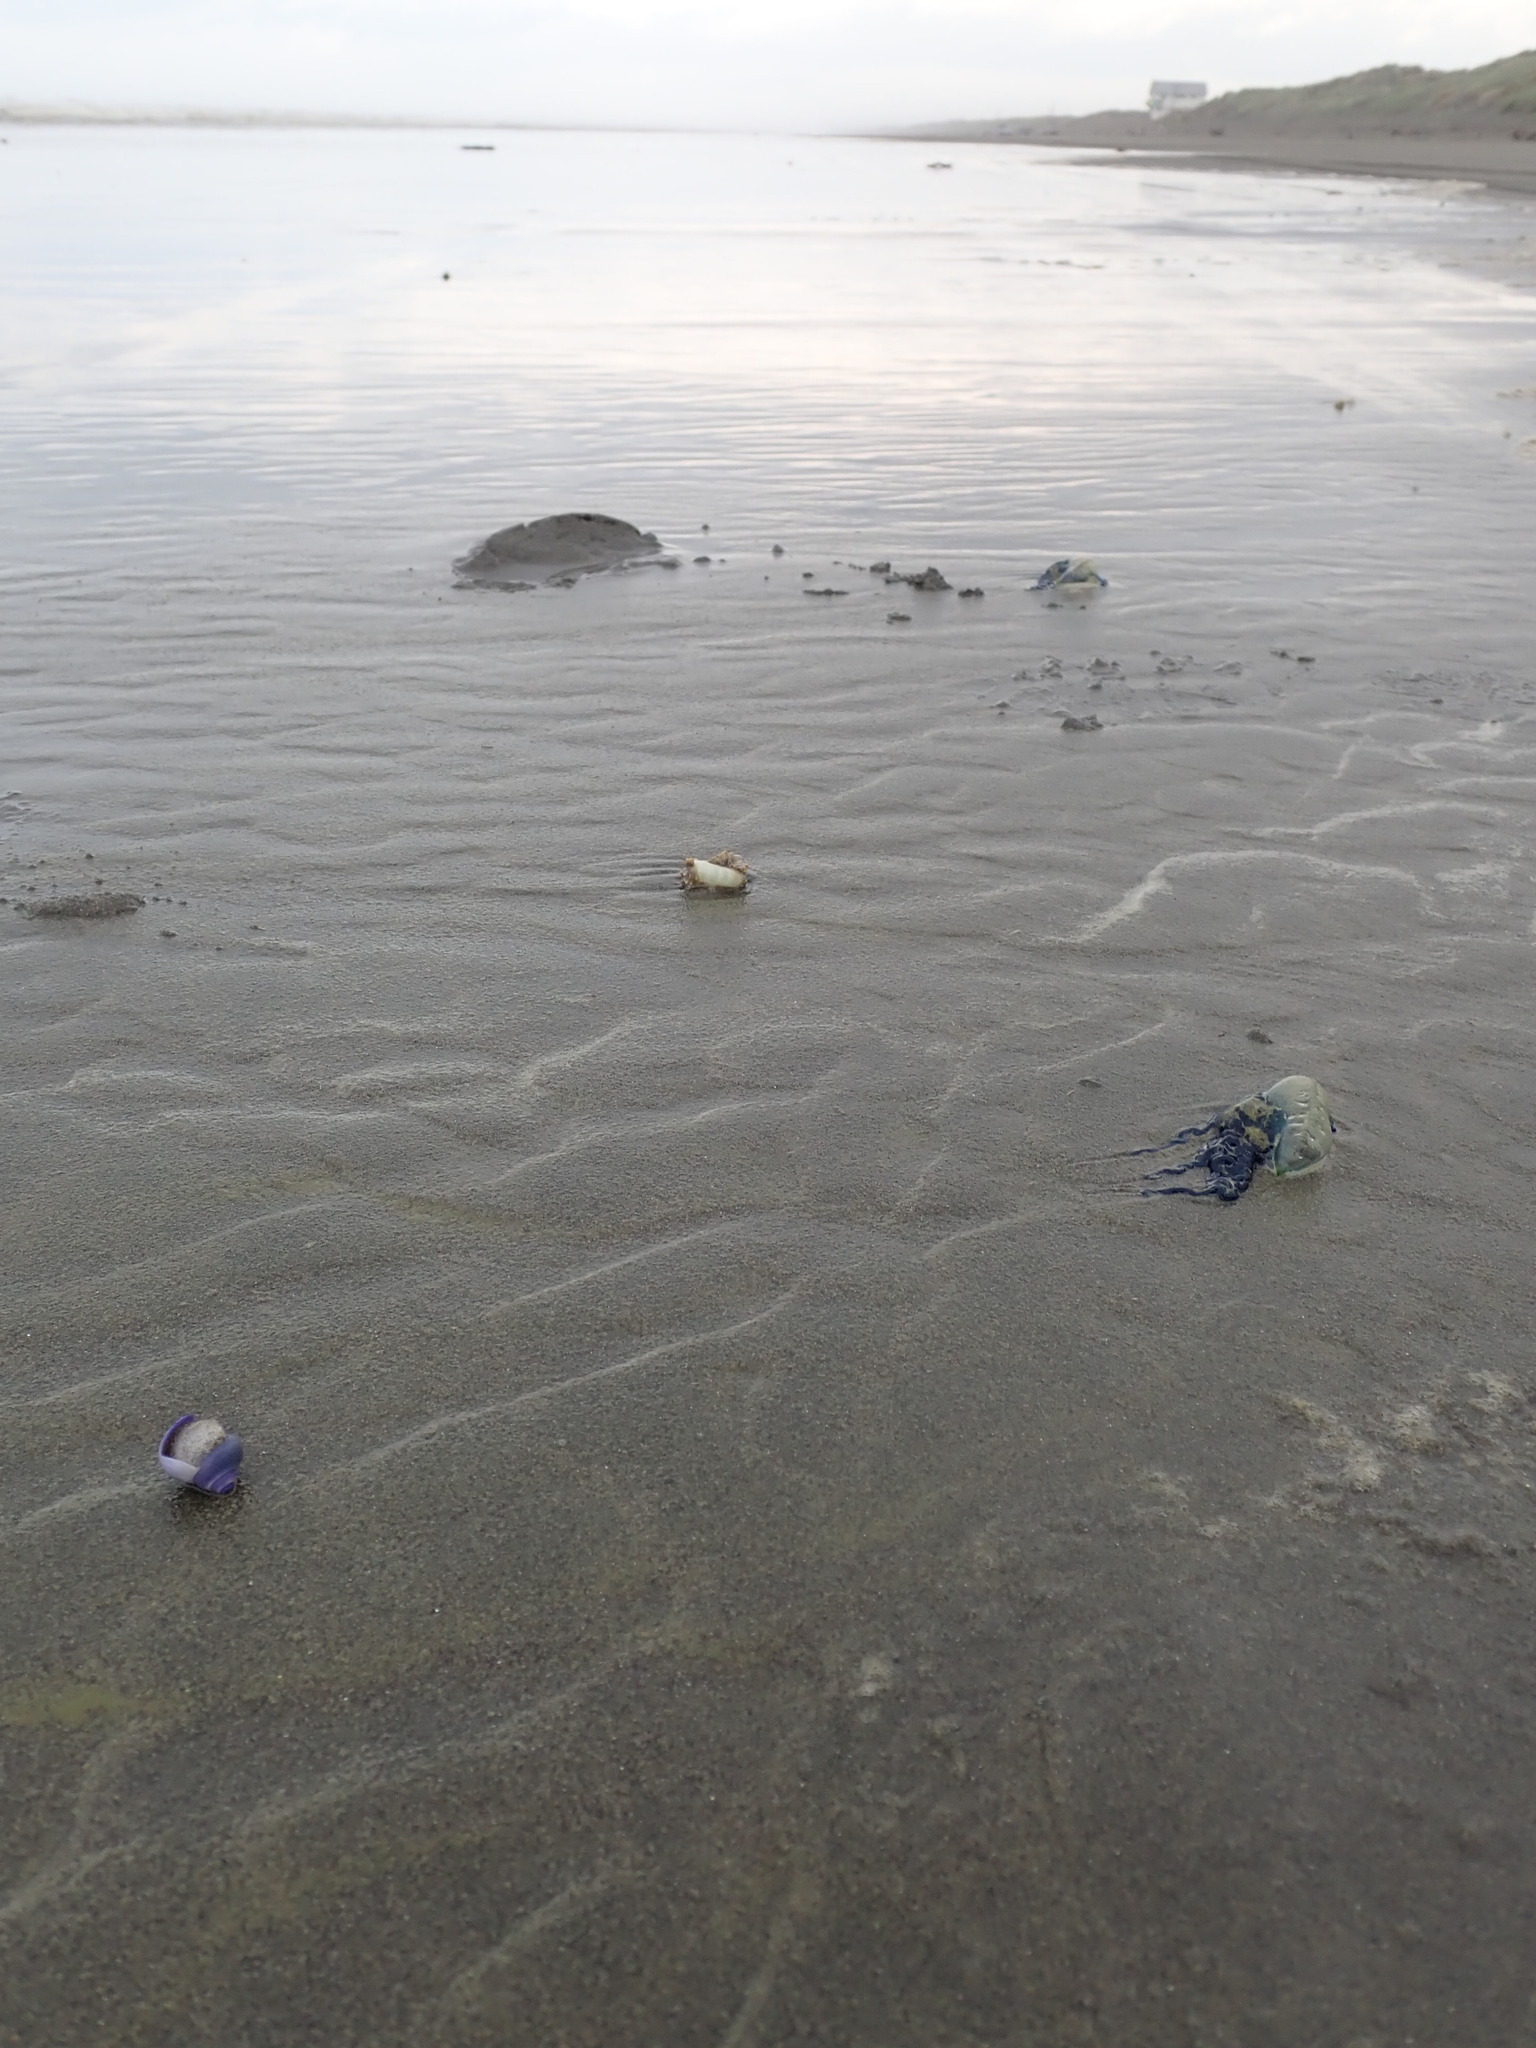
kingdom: Animalia
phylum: Cnidaria
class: Hydrozoa
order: Siphonophorae
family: Physaliidae
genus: Physalia
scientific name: Physalia physalis
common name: Portuguese man-of-war
